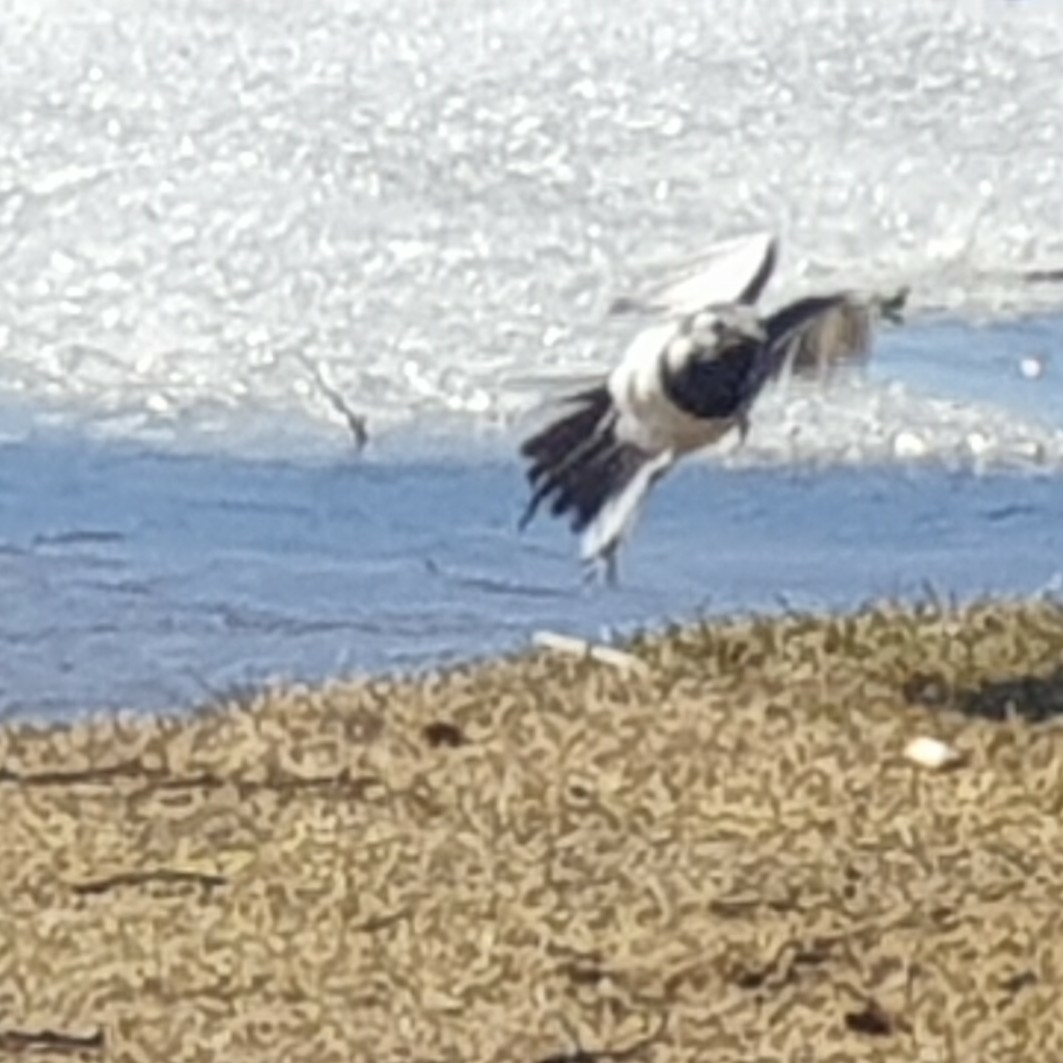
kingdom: Animalia
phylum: Chordata
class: Aves
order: Passeriformes
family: Motacillidae
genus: Motacilla
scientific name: Motacilla alba
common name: White wagtail
